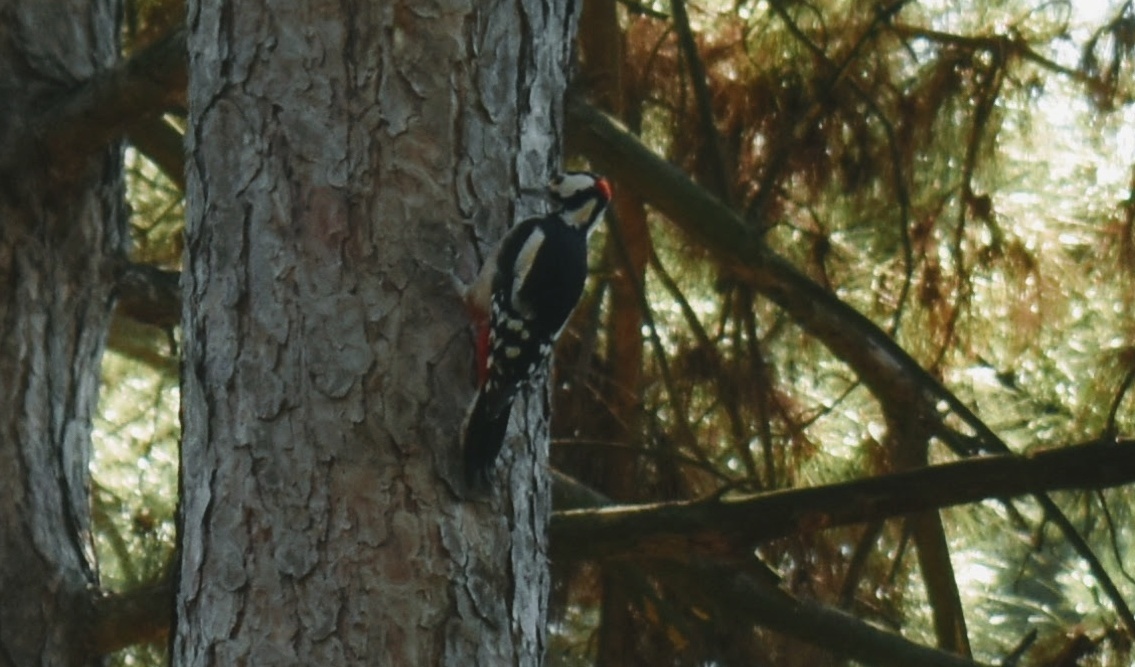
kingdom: Animalia
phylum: Chordata
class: Aves
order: Piciformes
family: Picidae
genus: Dendrocopos
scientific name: Dendrocopos major
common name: Great spotted woodpecker
